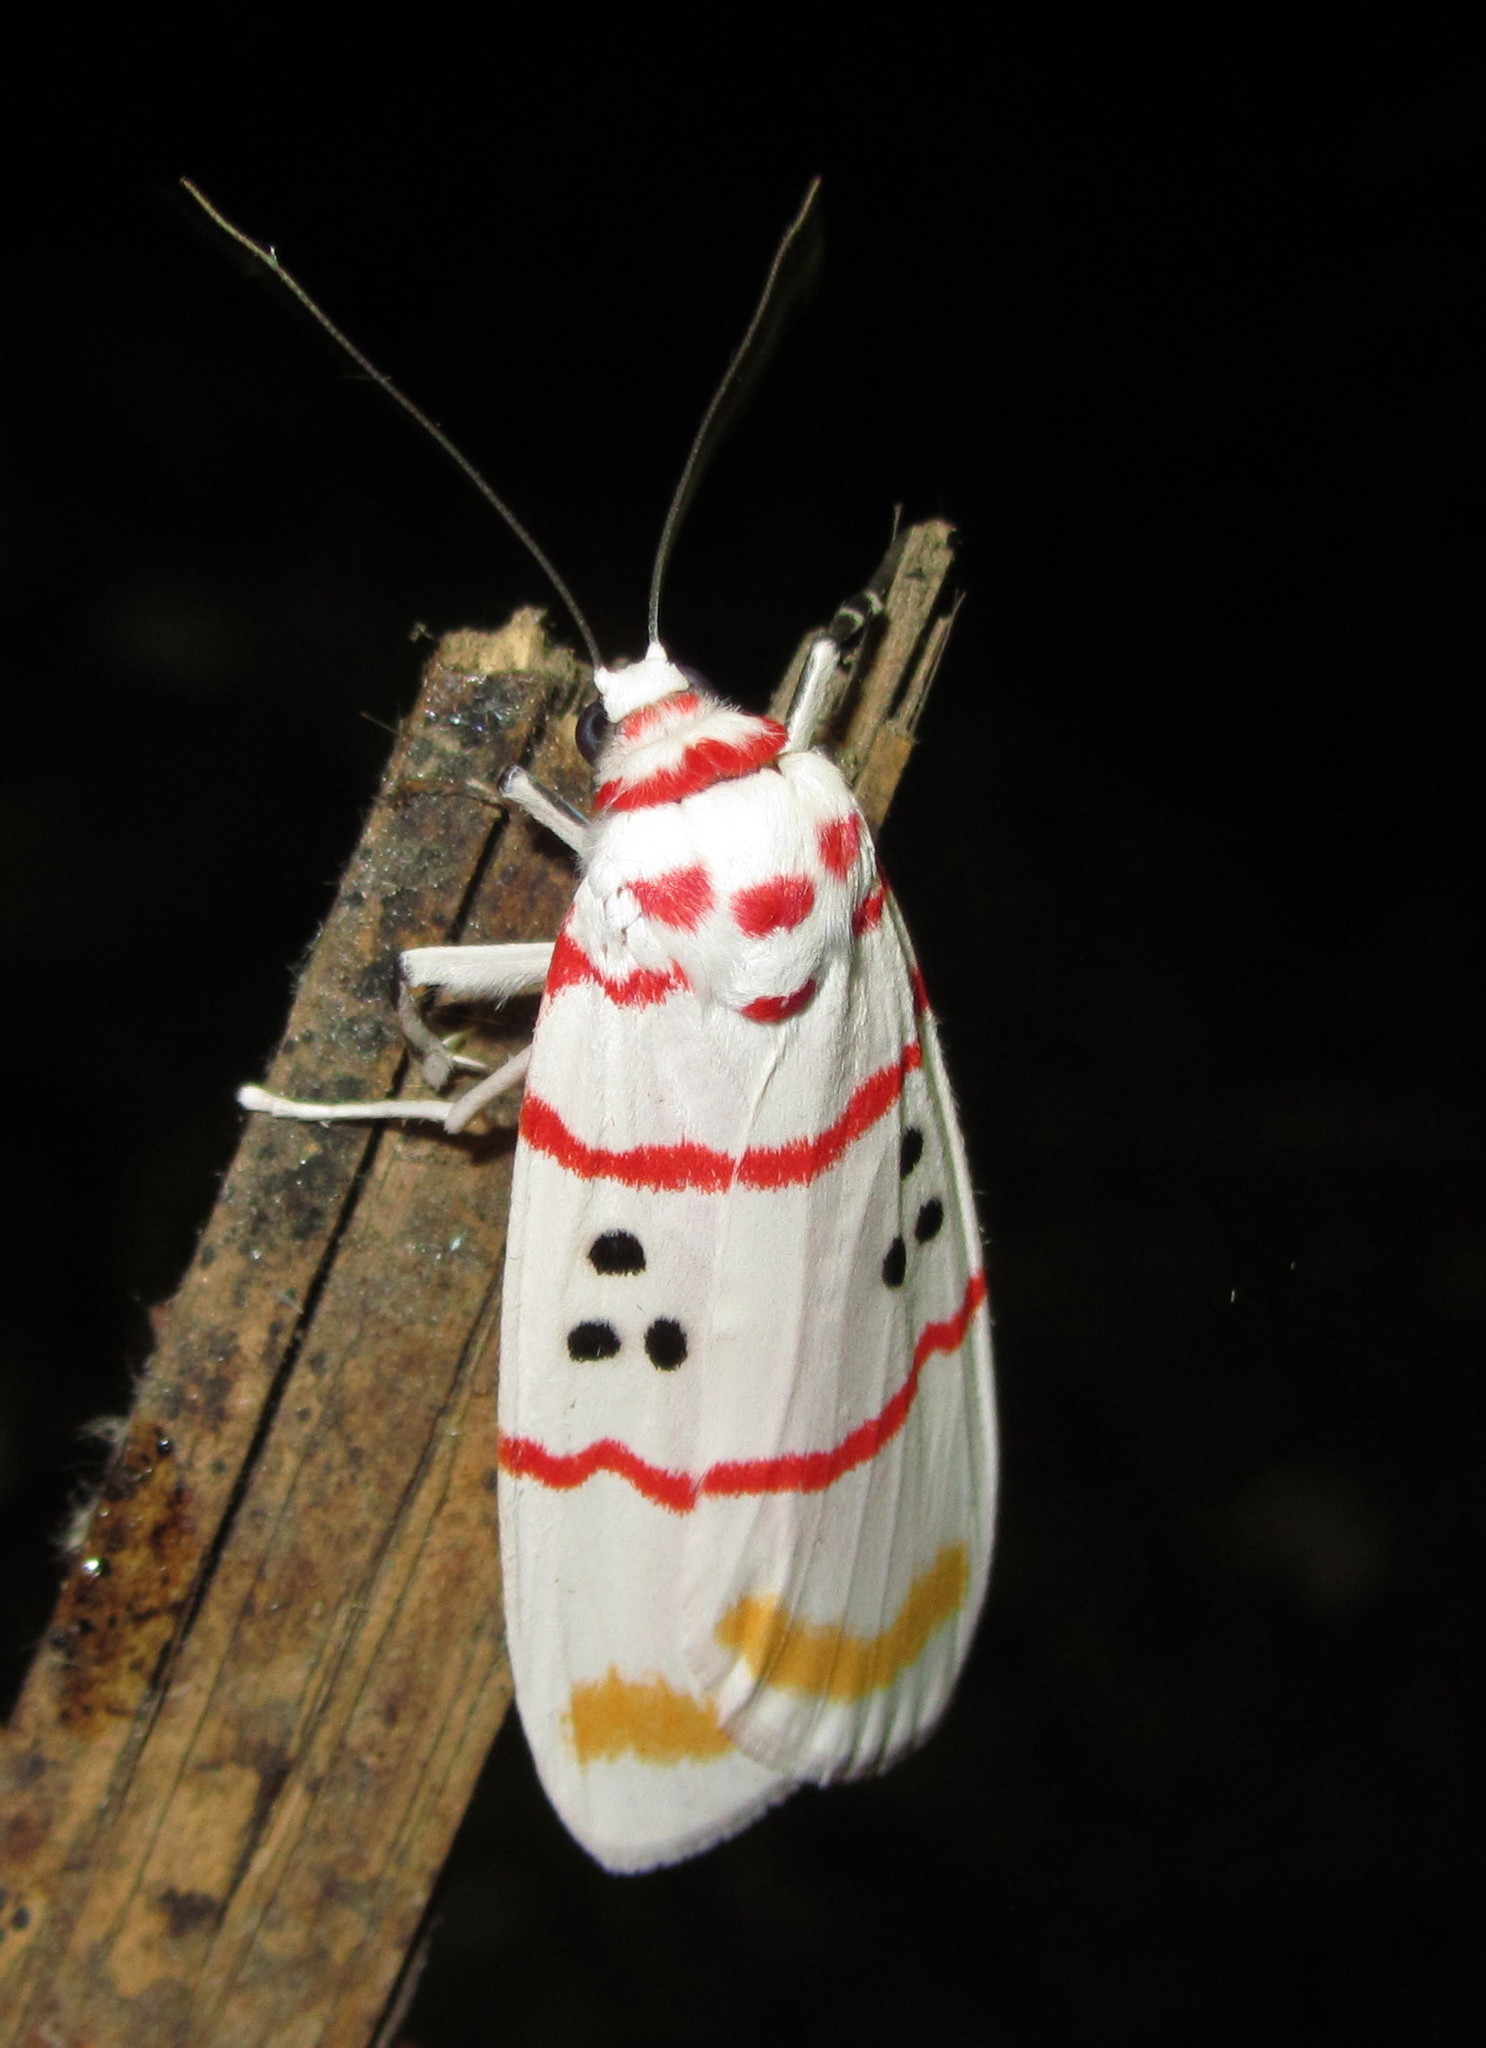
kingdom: Animalia
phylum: Arthropoda
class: Insecta
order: Lepidoptera
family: Erebidae
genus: Cyana
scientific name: Cyana bellissima
